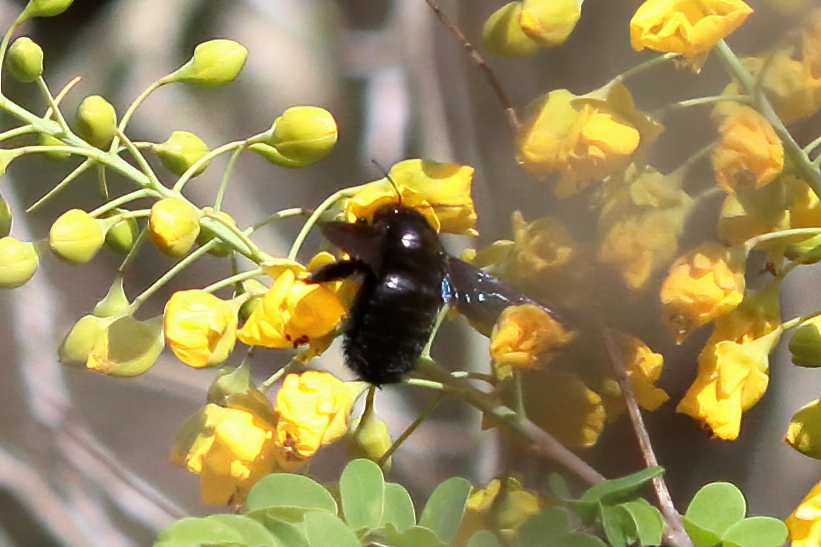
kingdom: Animalia
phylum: Arthropoda
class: Insecta
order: Hymenoptera
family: Apidae
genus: Xylocopa
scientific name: Xylocopa griswoldi
